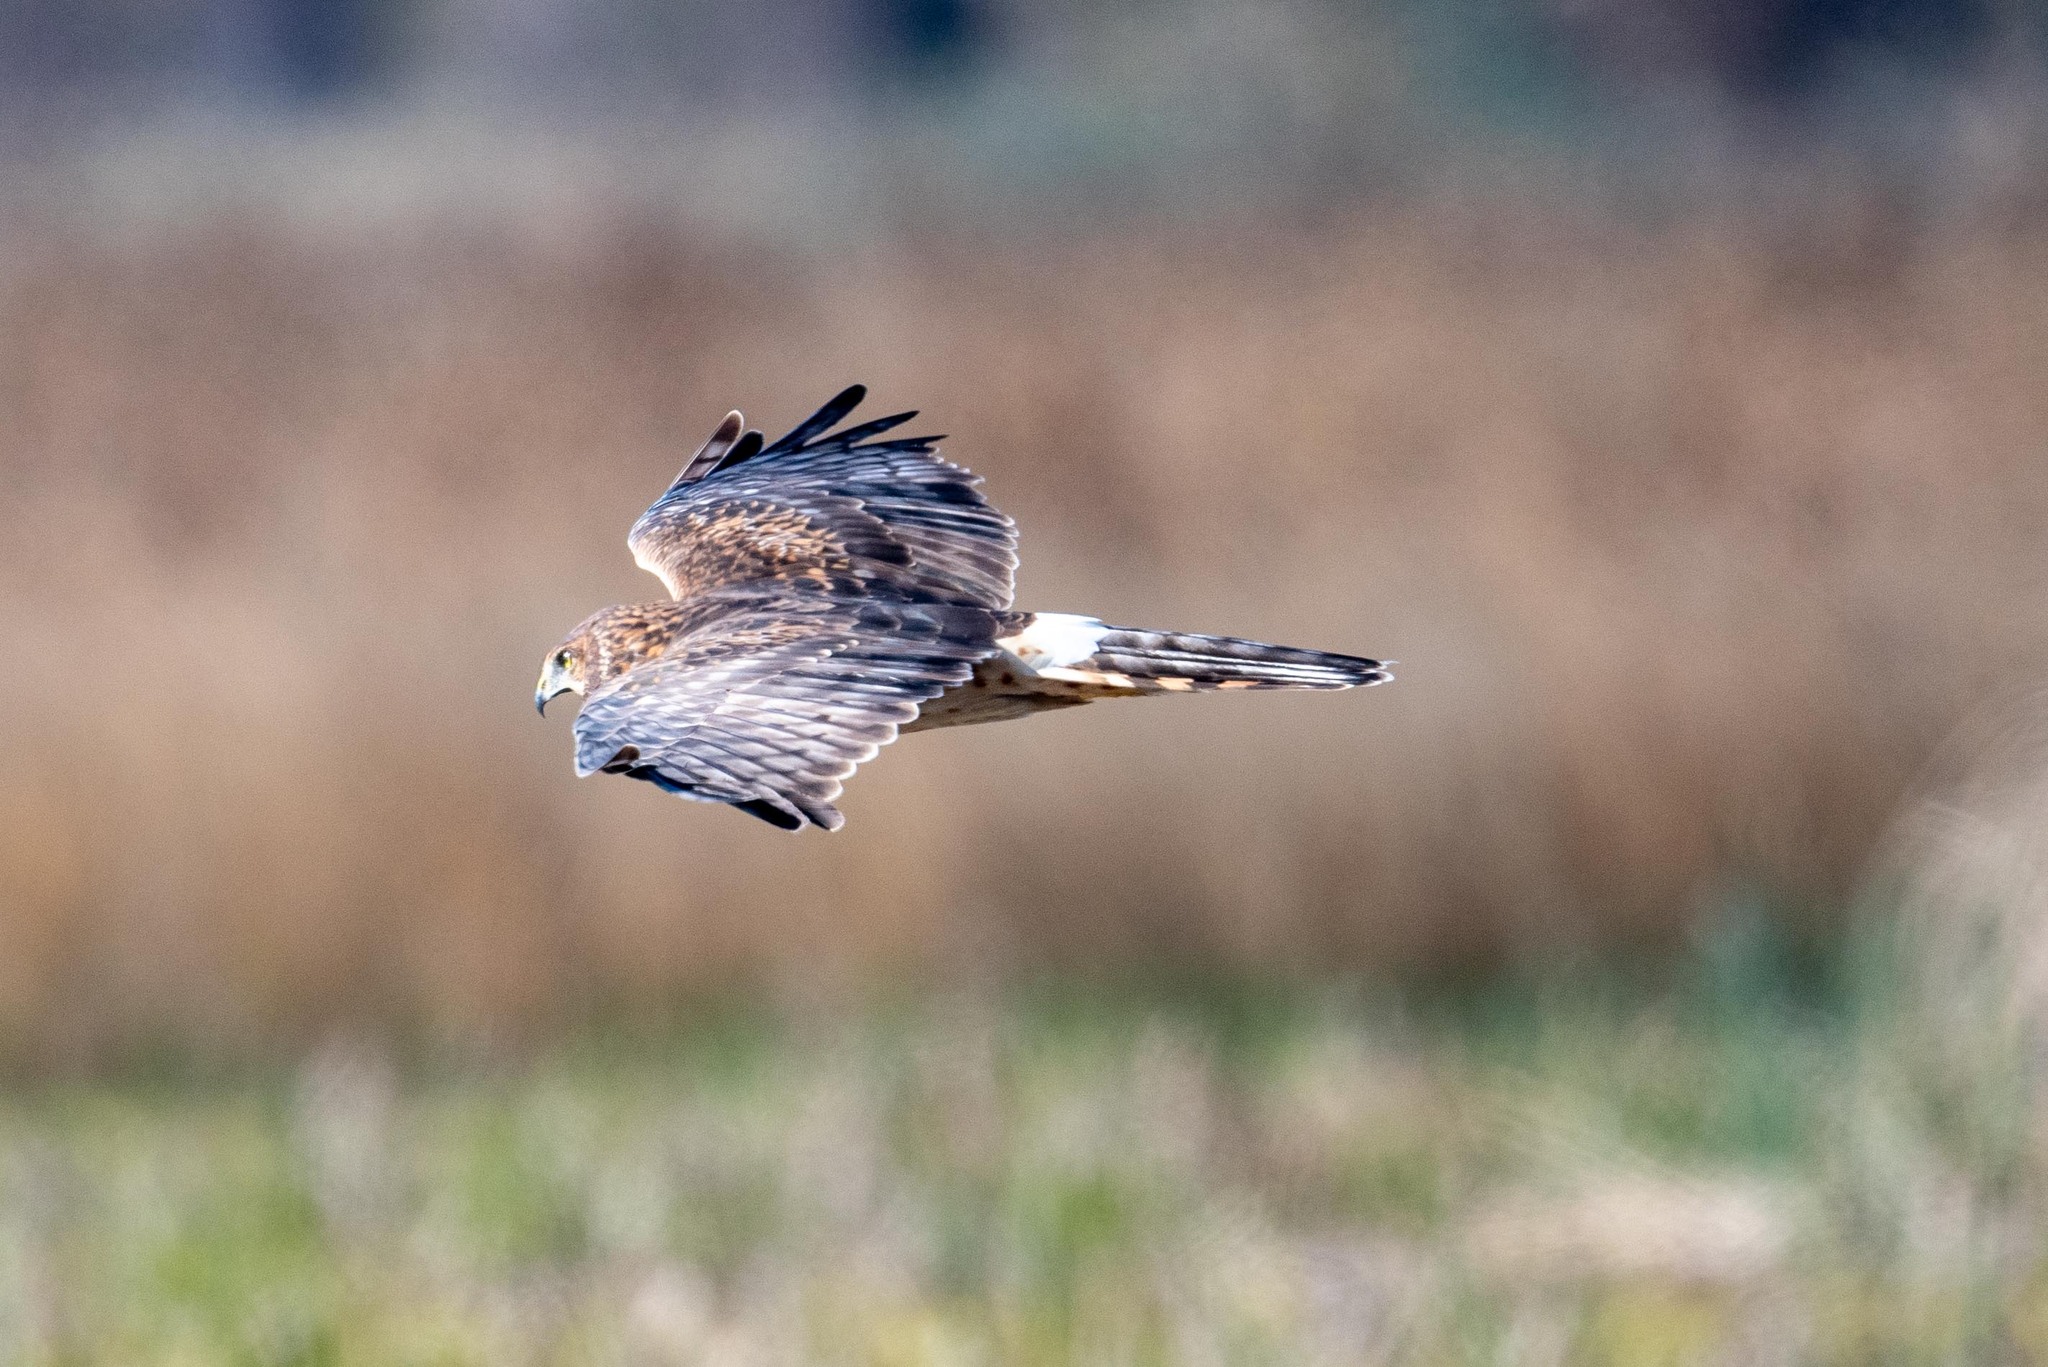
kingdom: Animalia
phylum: Chordata
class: Aves
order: Accipitriformes
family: Accipitridae
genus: Circus
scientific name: Circus cyaneus
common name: Hen harrier
